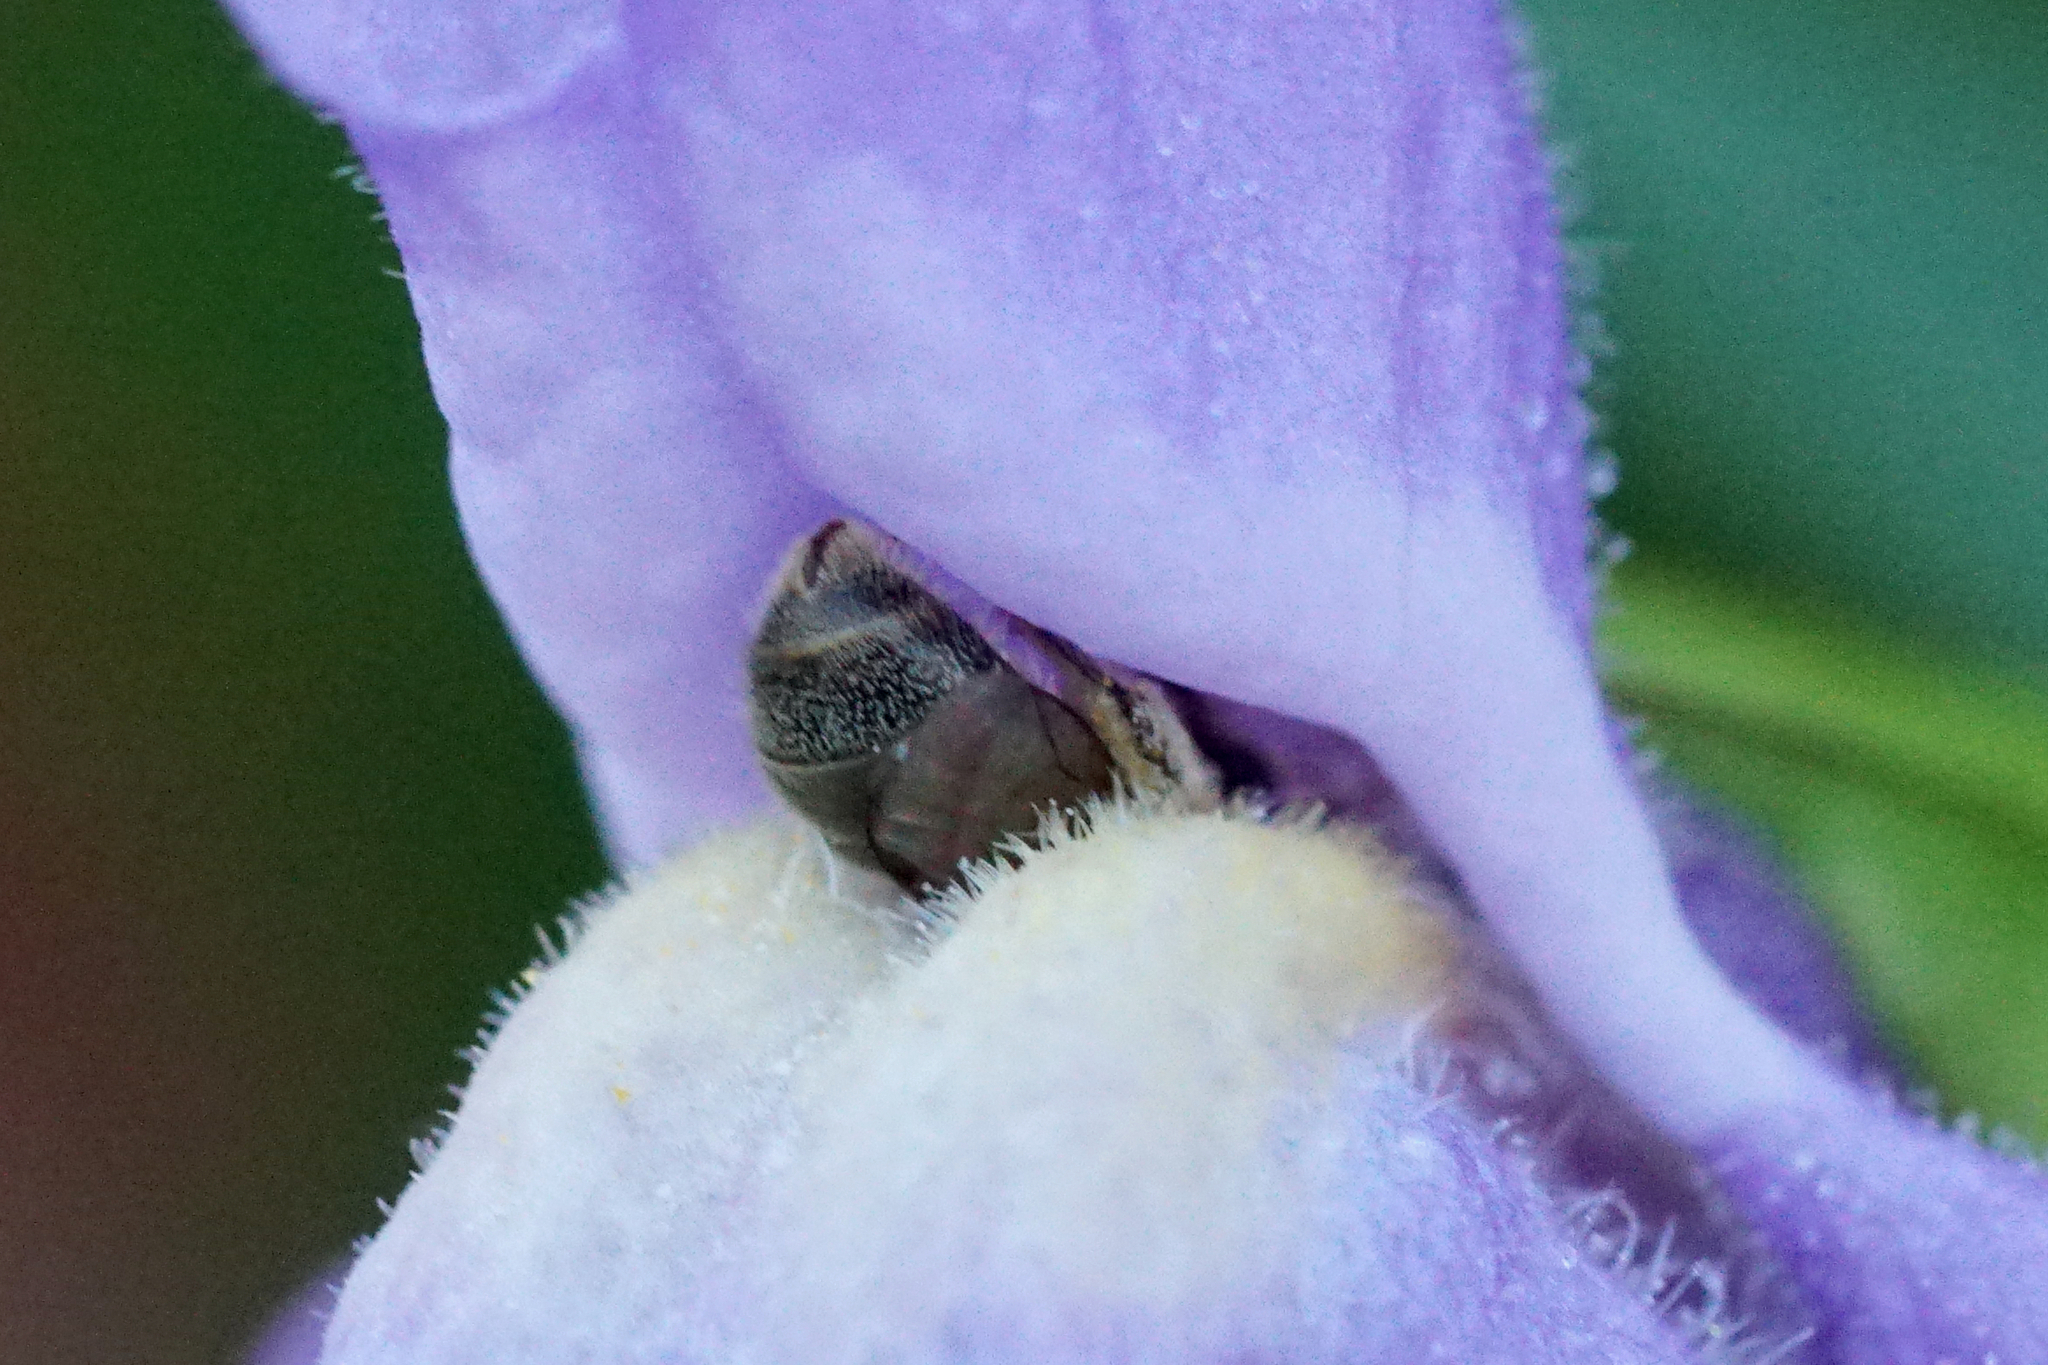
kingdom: Animalia
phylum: Arthropoda
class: Insecta
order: Hymenoptera
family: Halictidae
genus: Dialictus
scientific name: Dialictus
